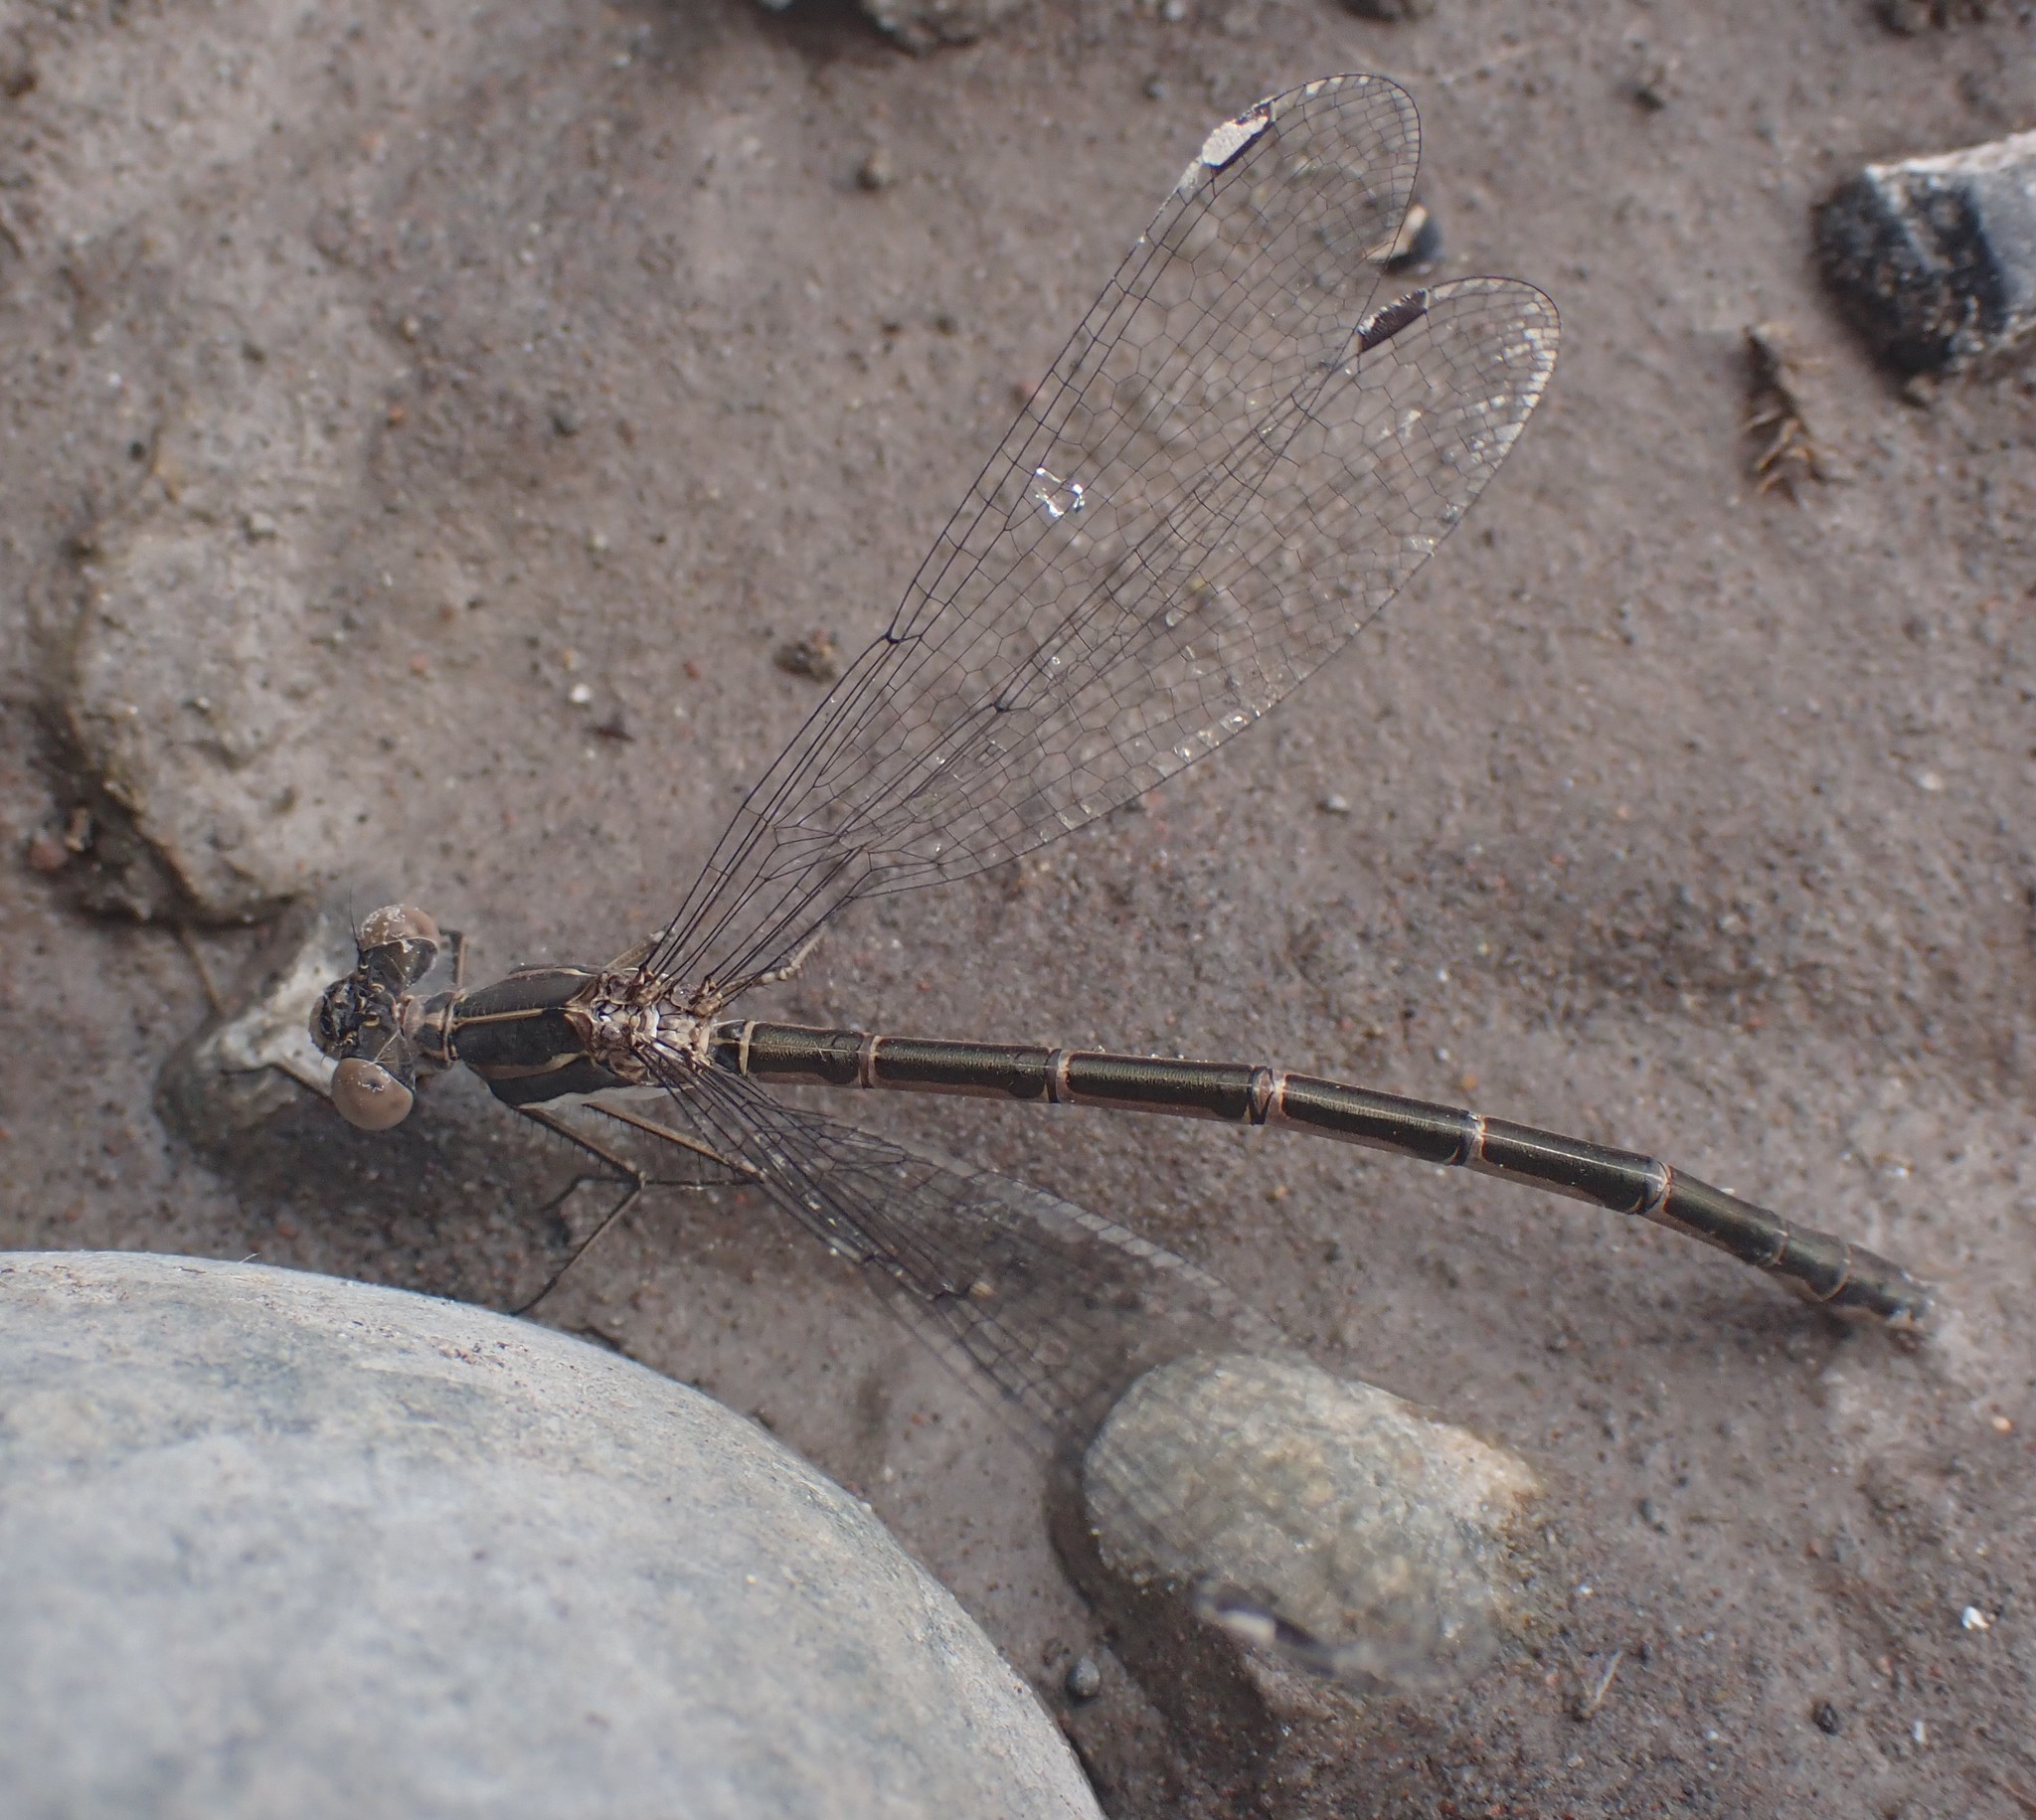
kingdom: Animalia
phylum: Arthropoda
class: Insecta
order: Odonata
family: Lestidae
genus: Lestes
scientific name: Lestes congener
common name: Spotted spreadwing
